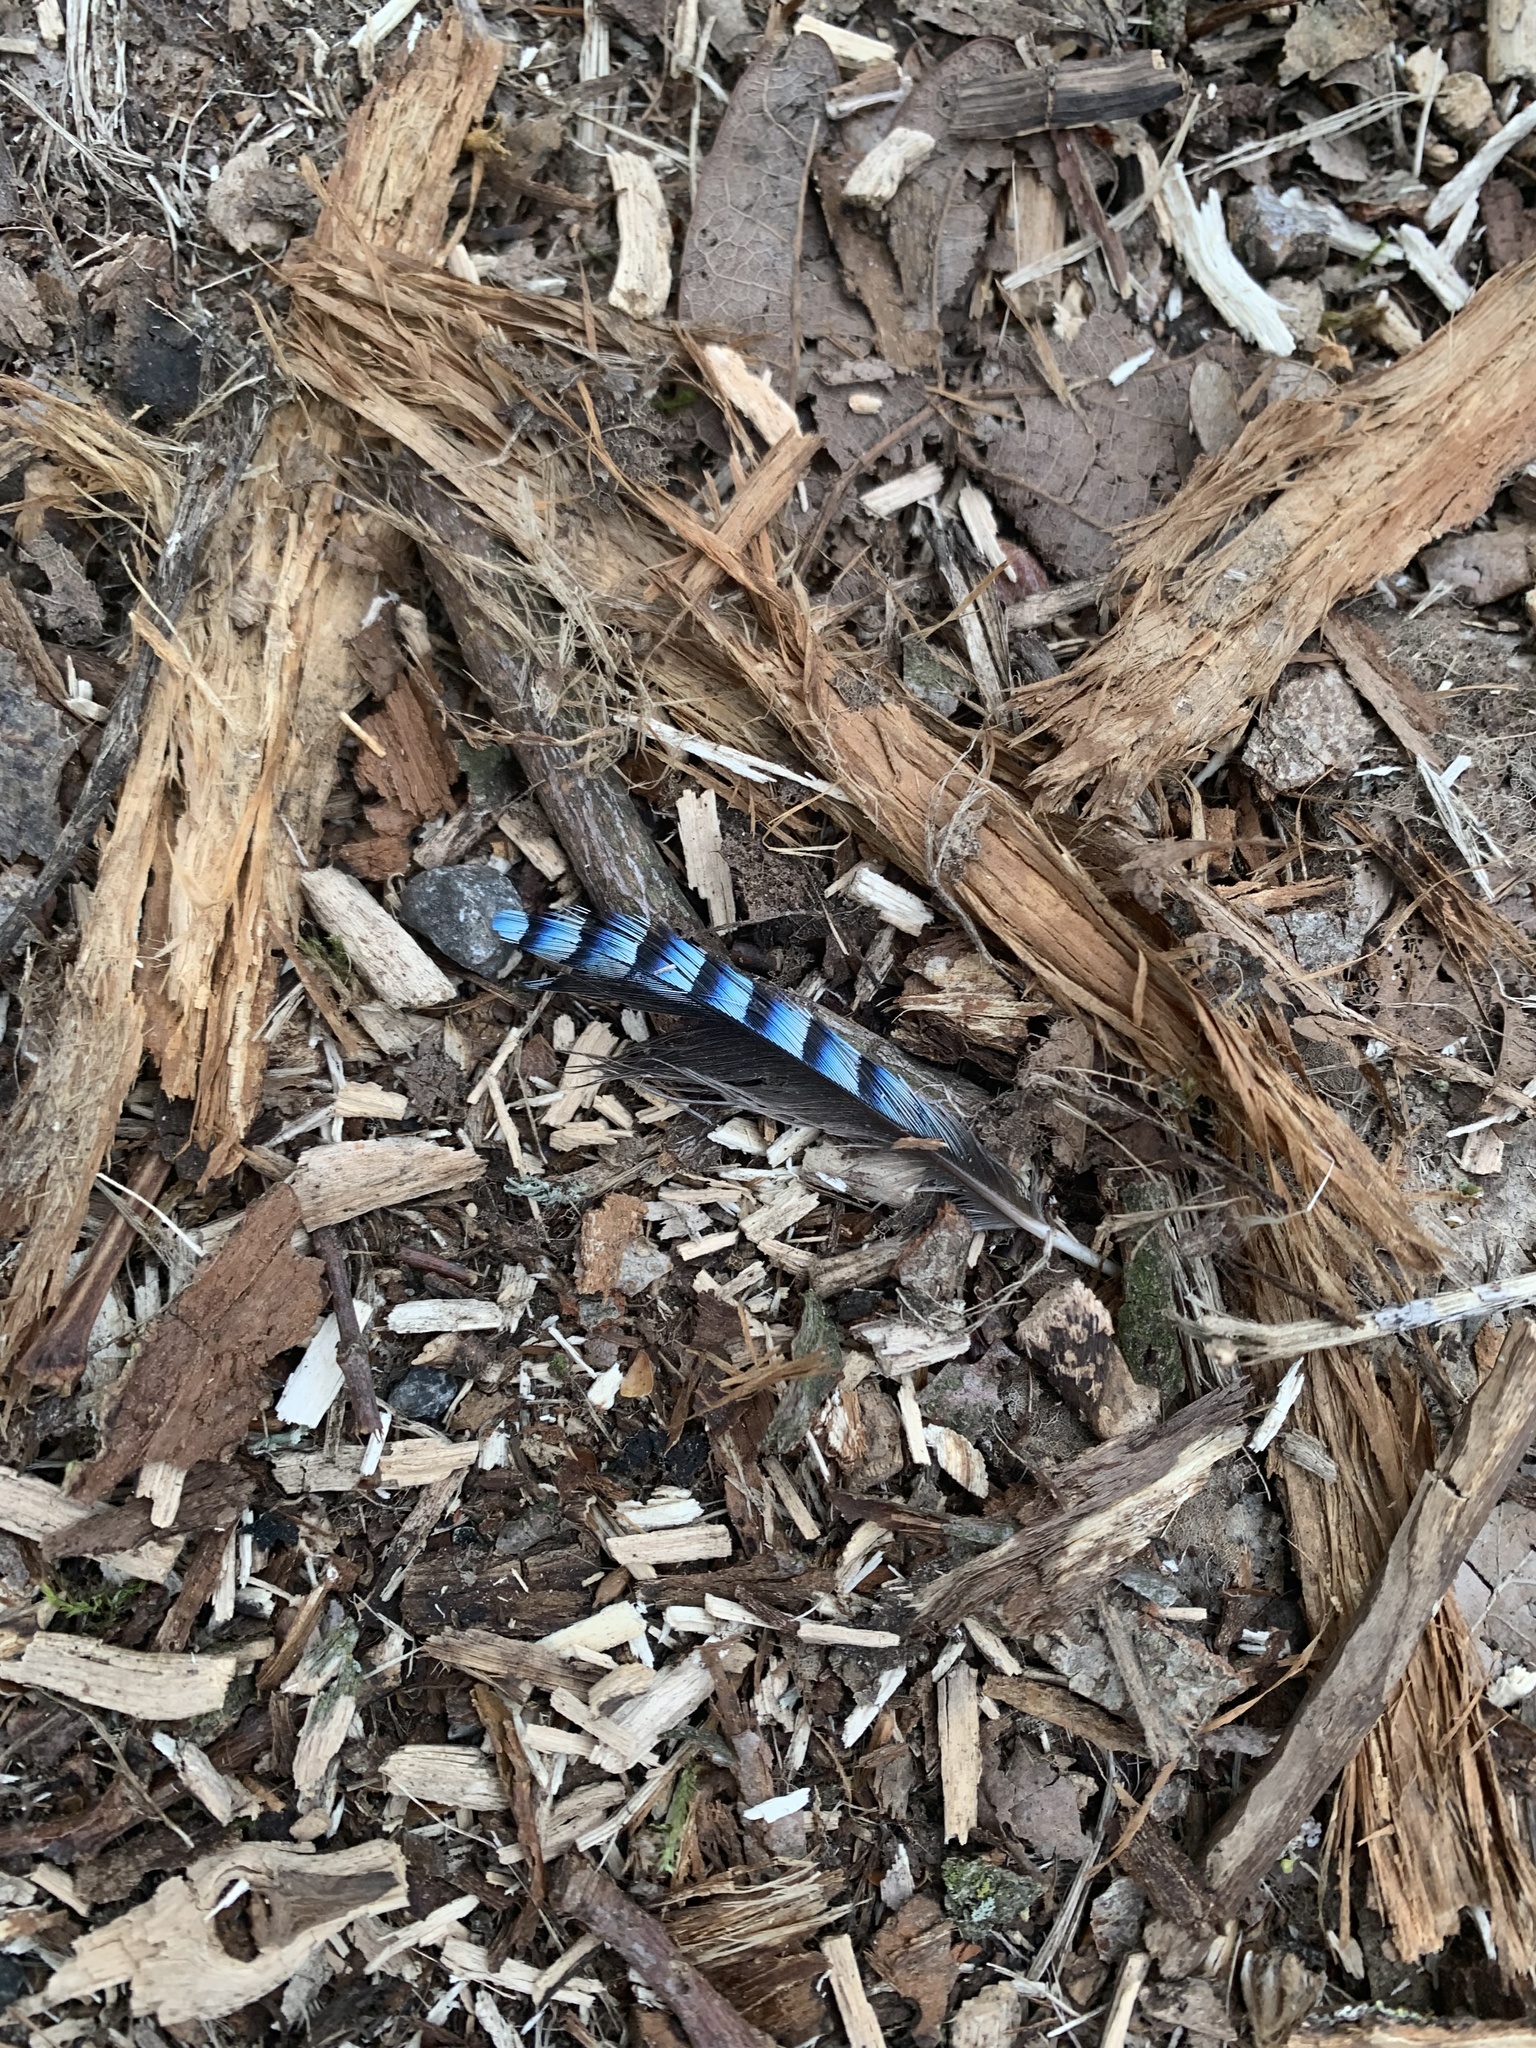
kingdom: Animalia
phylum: Chordata
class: Aves
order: Passeriformes
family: Corvidae
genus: Garrulus
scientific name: Garrulus glandarius
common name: Eurasian jay
